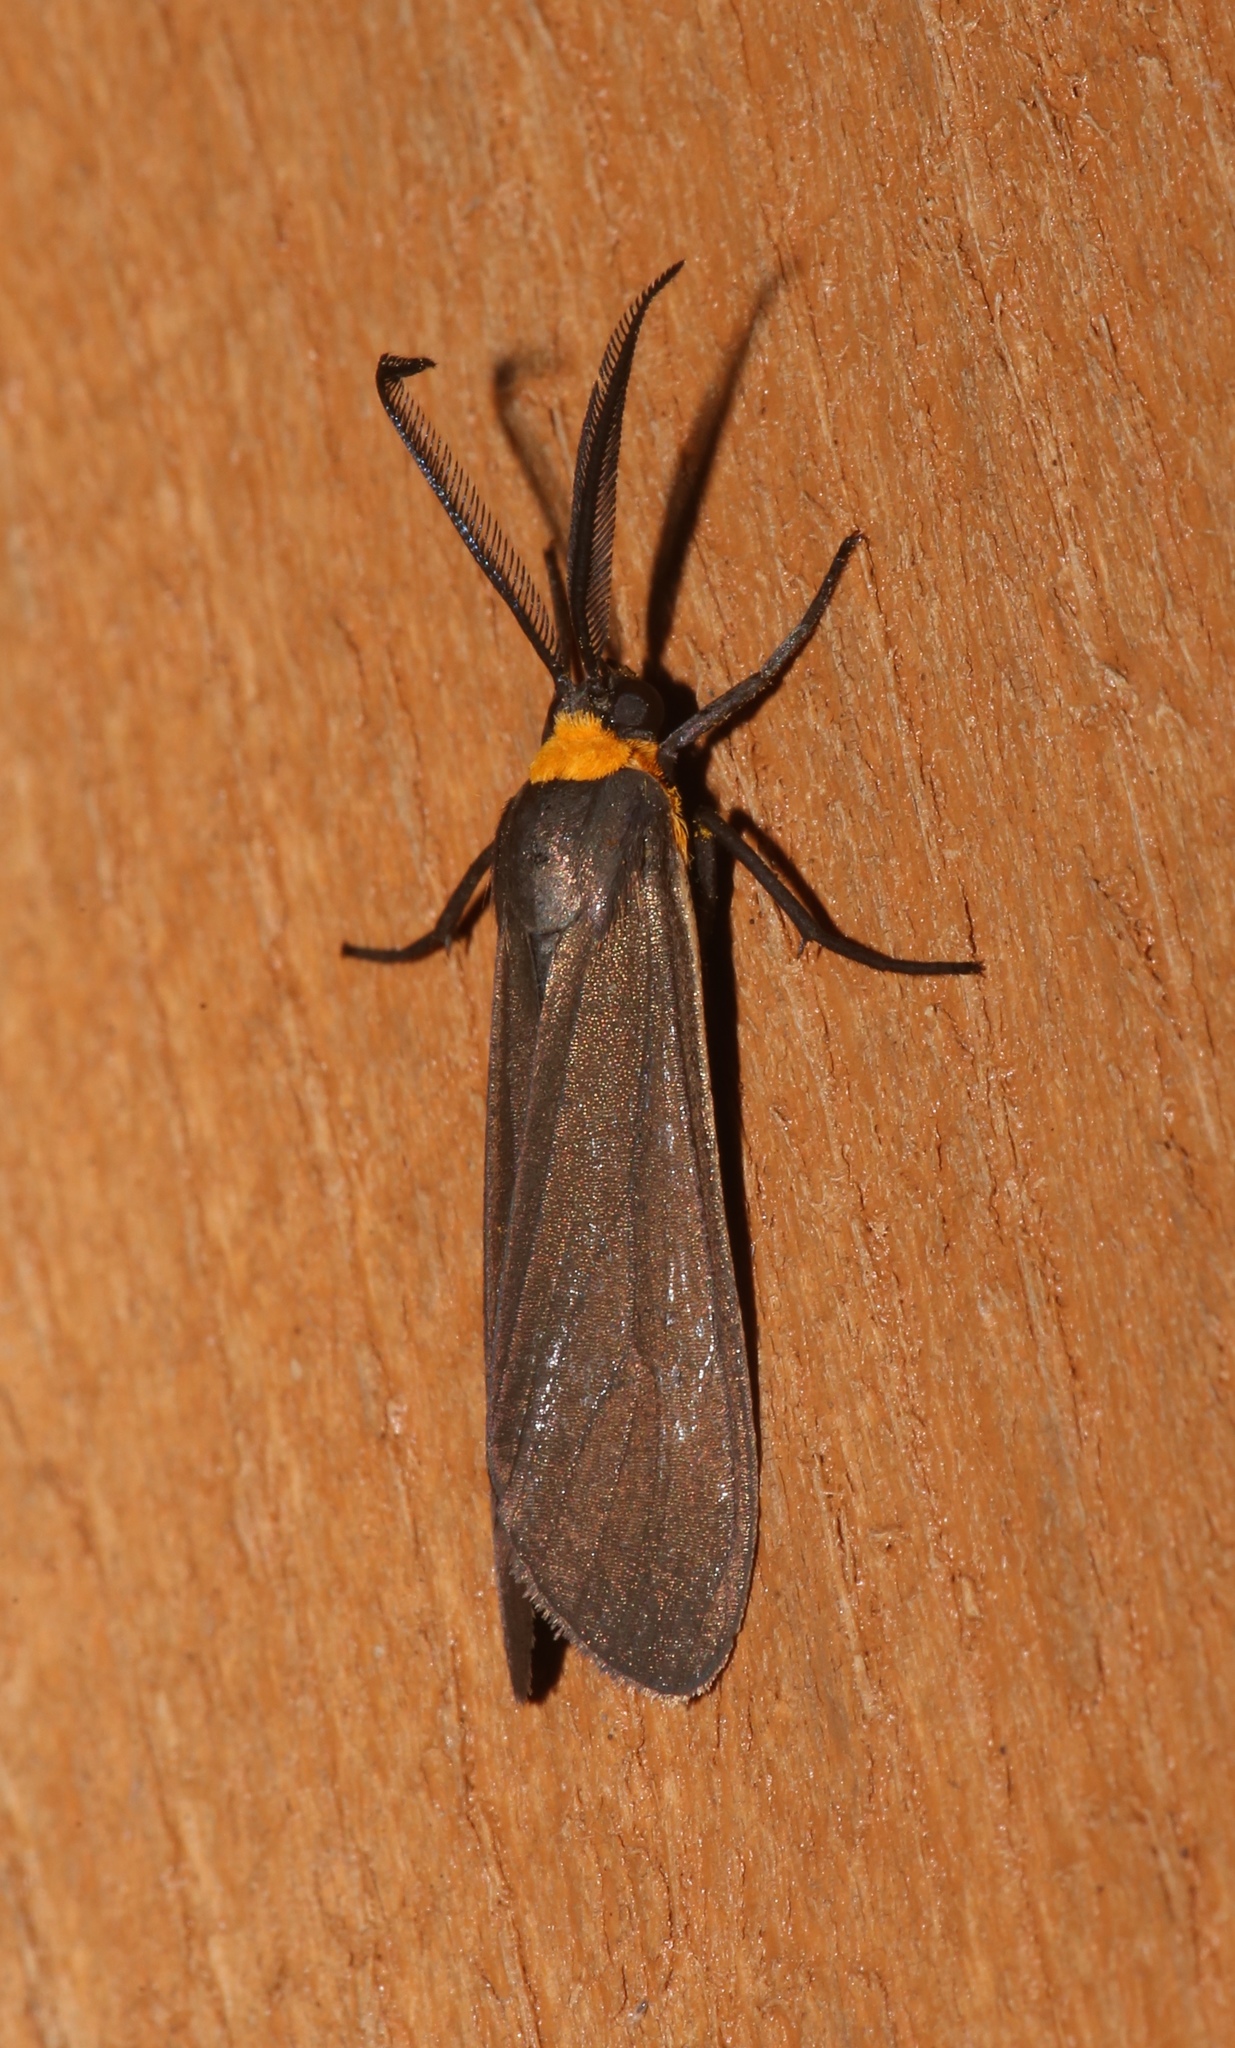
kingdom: Animalia
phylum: Arthropoda
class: Insecta
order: Lepidoptera
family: Erebidae
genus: Cisseps
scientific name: Cisseps fulvicollis
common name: Yellow-collared scape moth
